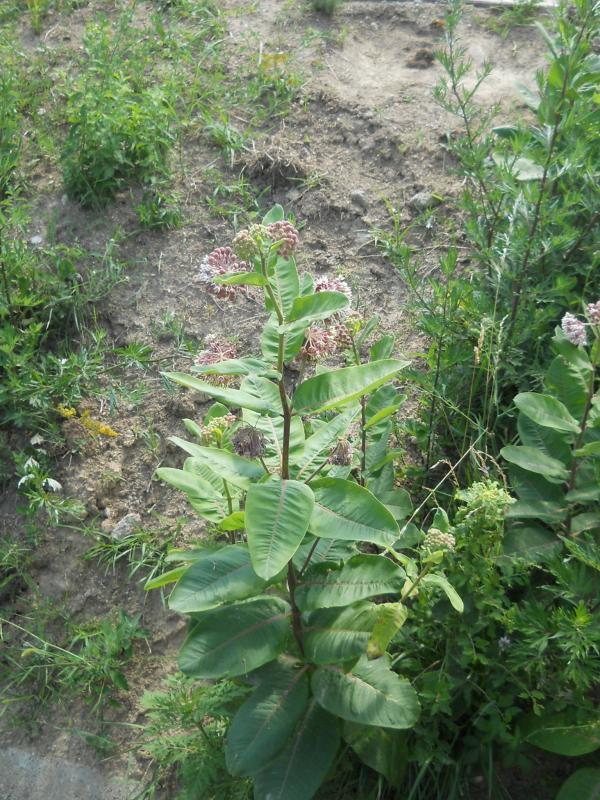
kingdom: Plantae
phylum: Tracheophyta
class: Magnoliopsida
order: Gentianales
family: Apocynaceae
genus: Asclepias
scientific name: Asclepias syriaca
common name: Common milkweed
